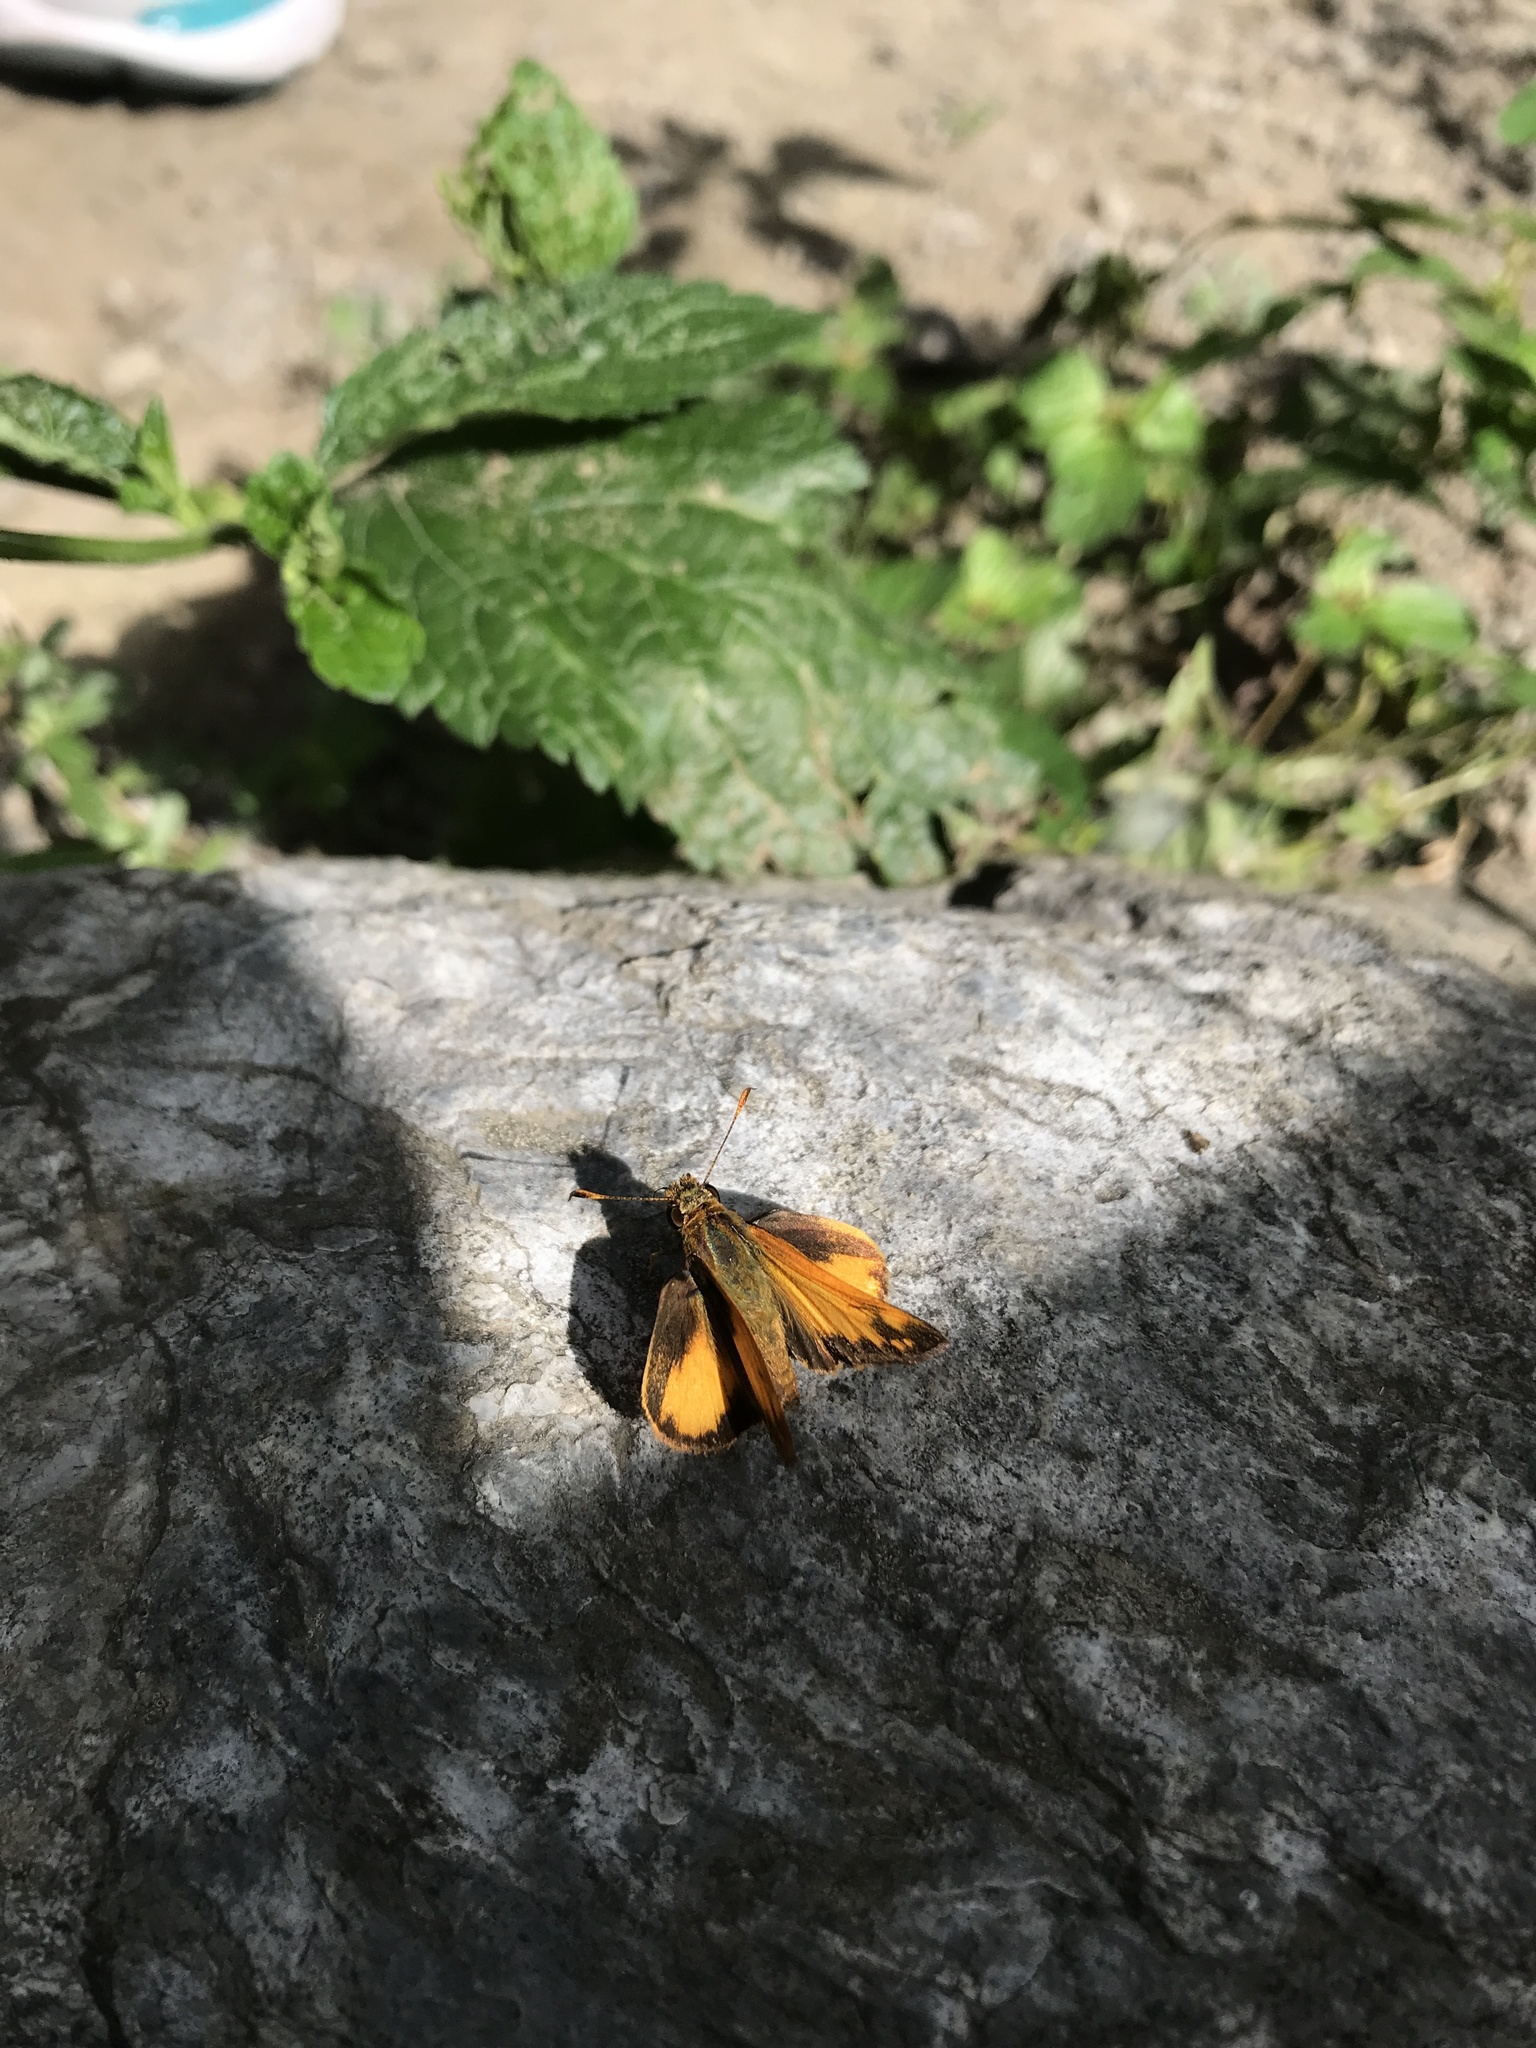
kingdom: Animalia
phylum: Arthropoda
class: Insecta
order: Lepidoptera
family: Hesperiidae
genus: Lon
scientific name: Lon zabulon
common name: Zabulon skipper
